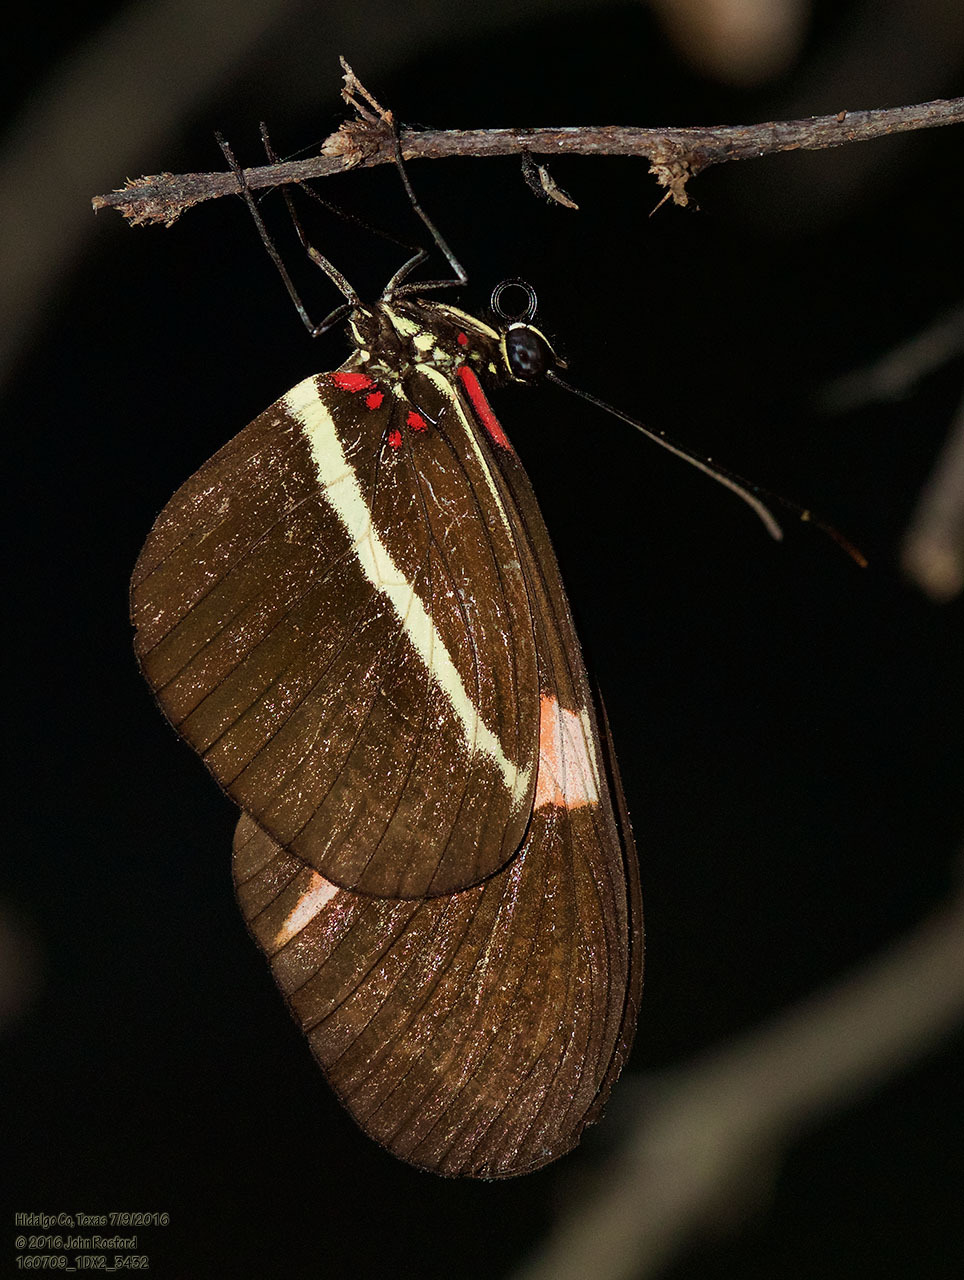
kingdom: Animalia
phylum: Arthropoda
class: Insecta
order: Lepidoptera
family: Nymphalidae
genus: Tirumala
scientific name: Tirumala petiverana
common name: Blue monarch
